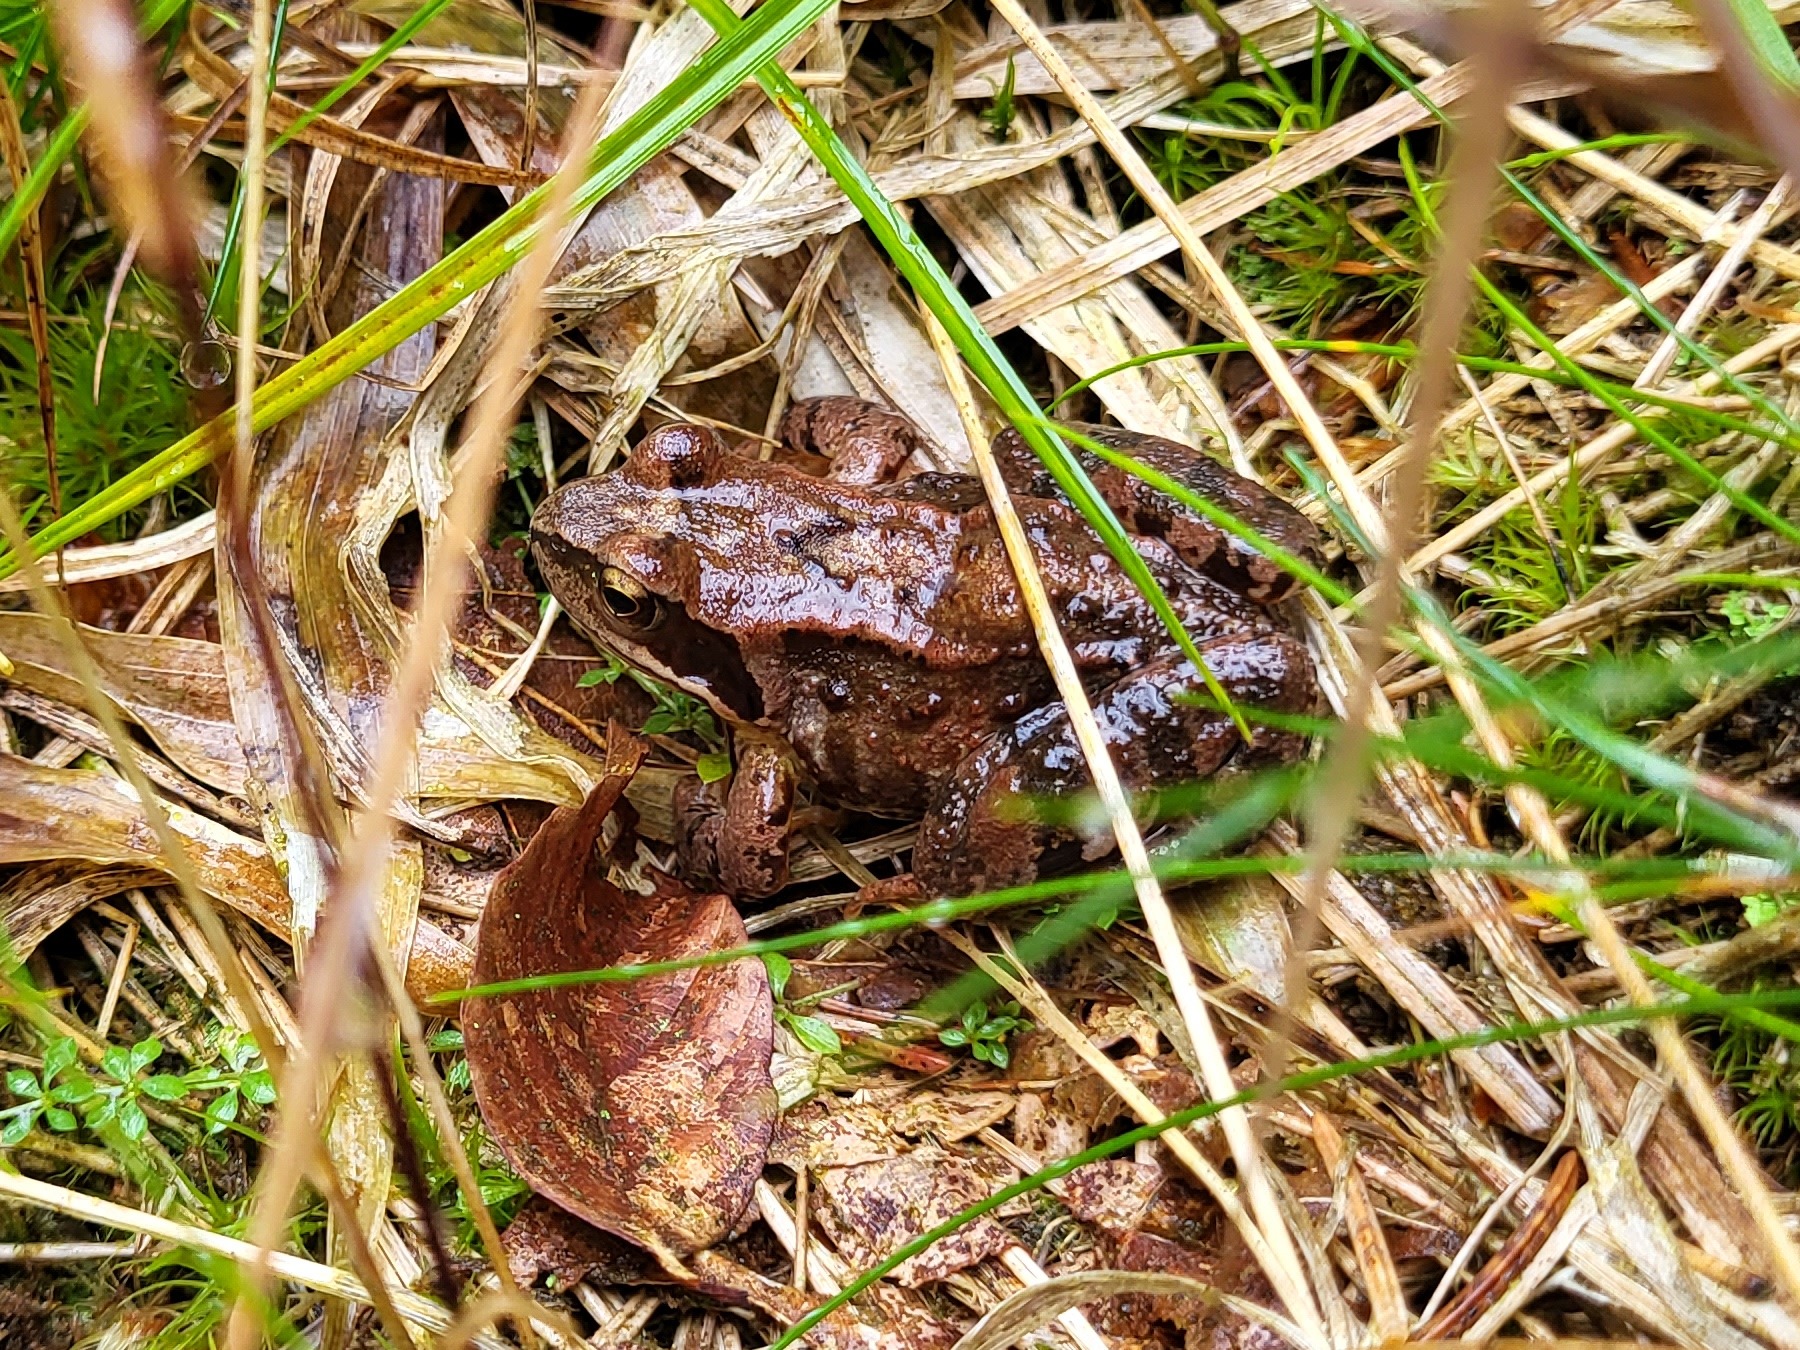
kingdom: Animalia
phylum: Chordata
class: Amphibia
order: Anura
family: Ranidae
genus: Rana
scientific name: Rana temporaria
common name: Common frog
